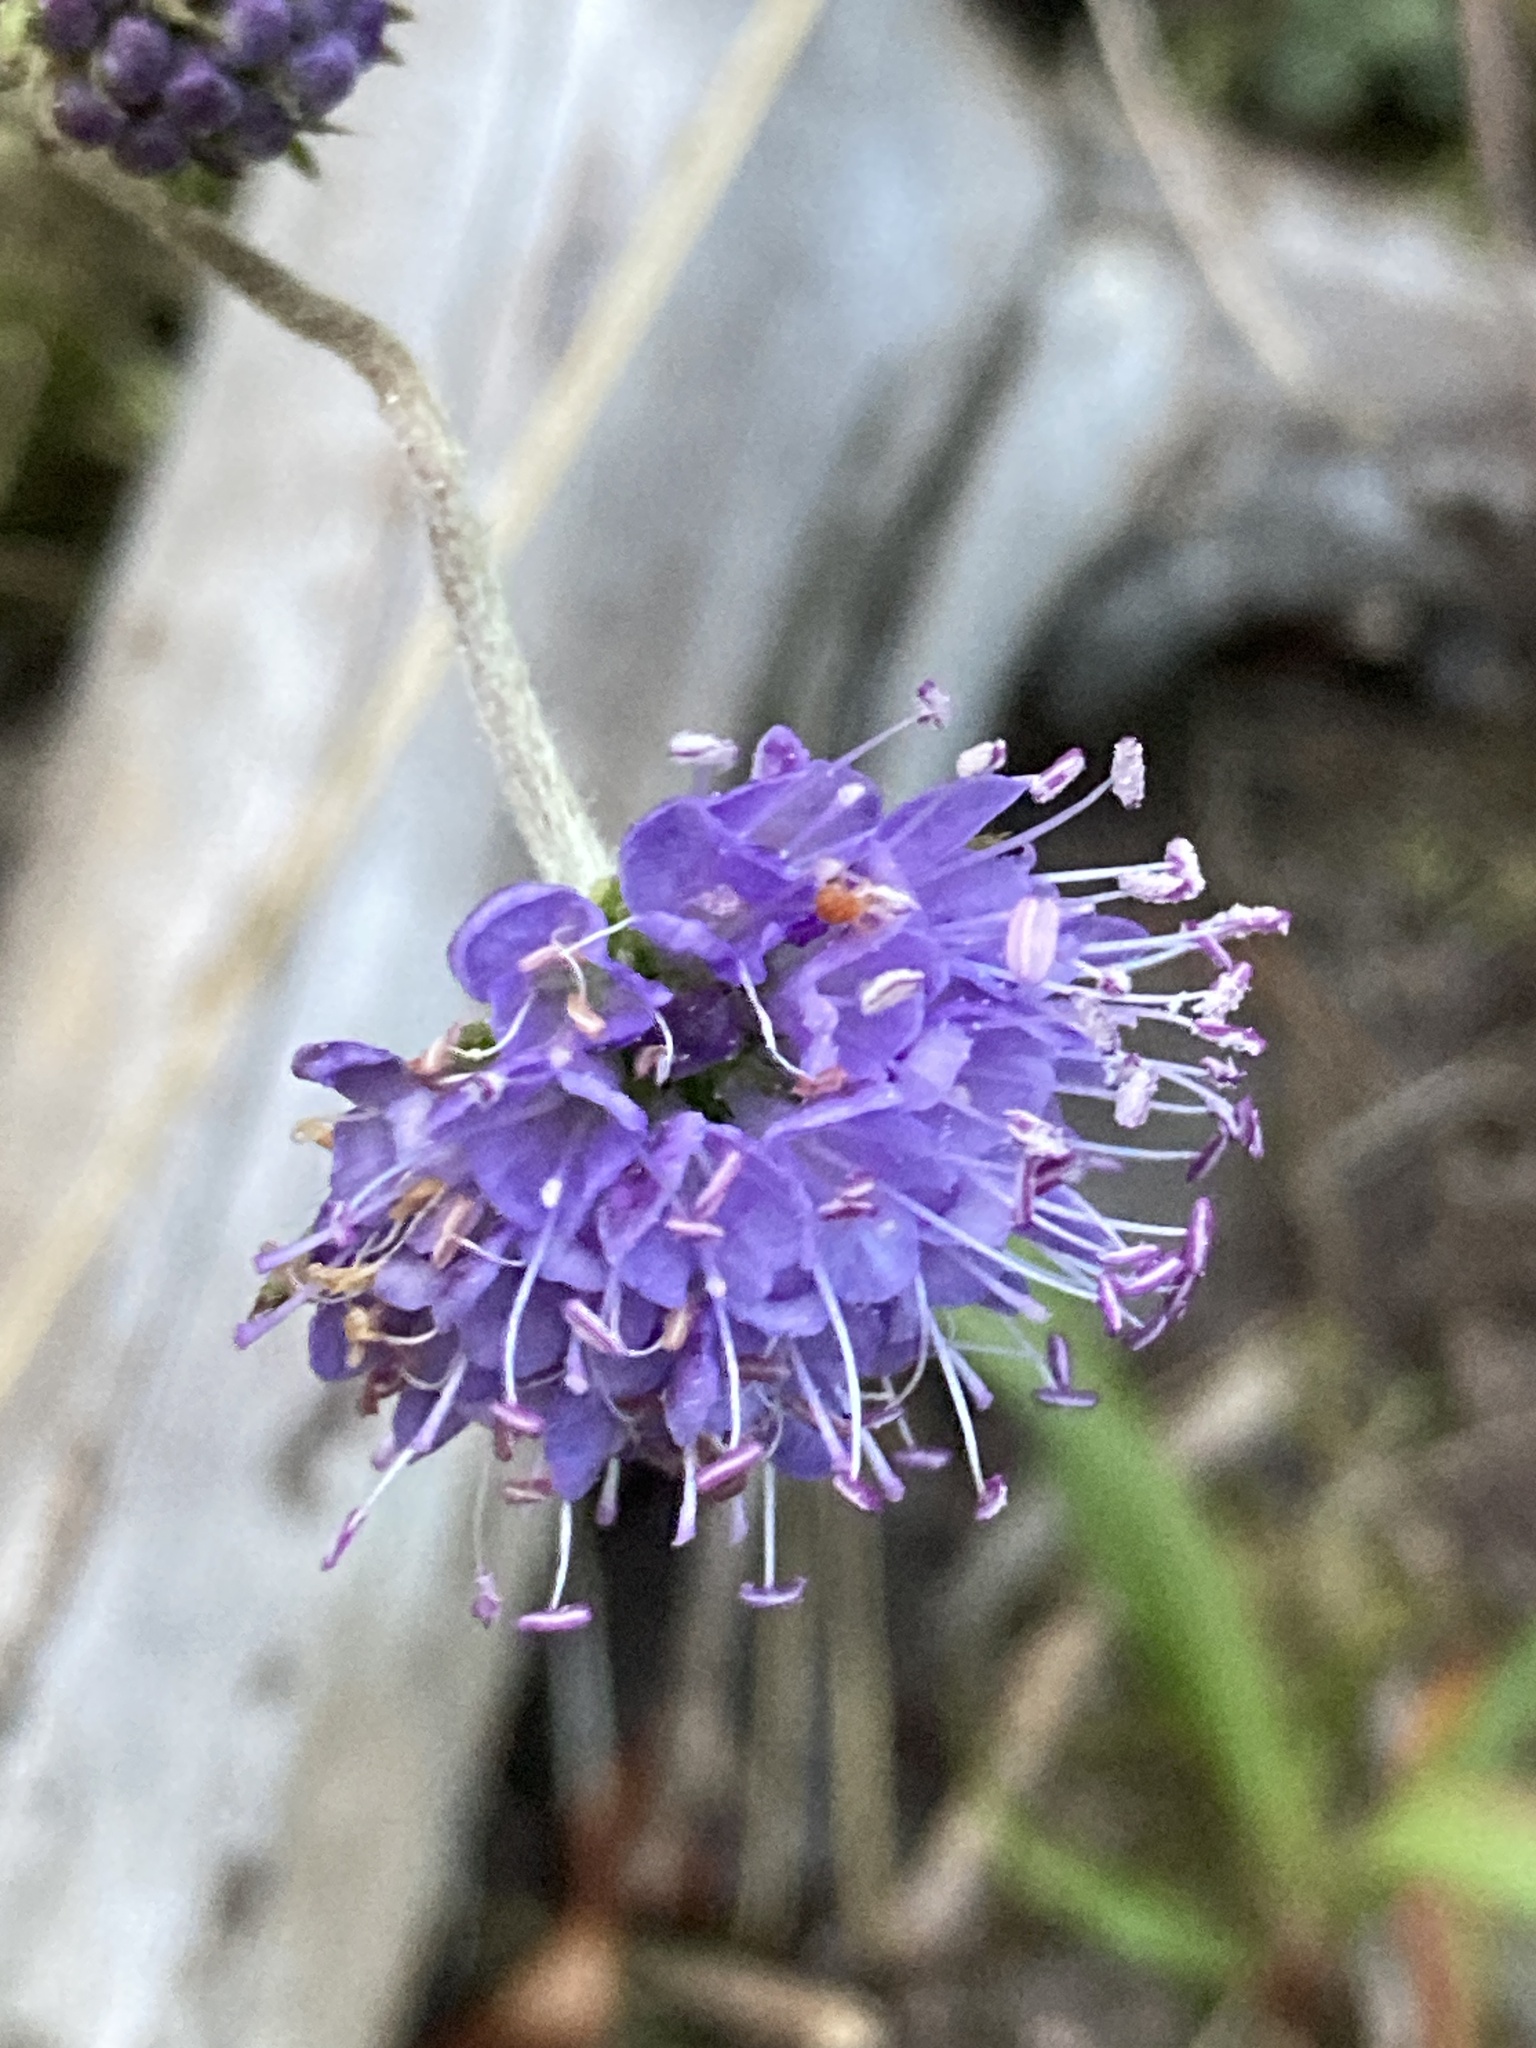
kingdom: Plantae
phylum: Tracheophyta
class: Magnoliopsida
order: Dipsacales
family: Caprifoliaceae
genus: Succisa
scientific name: Succisa pratensis
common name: Devil's-bit
